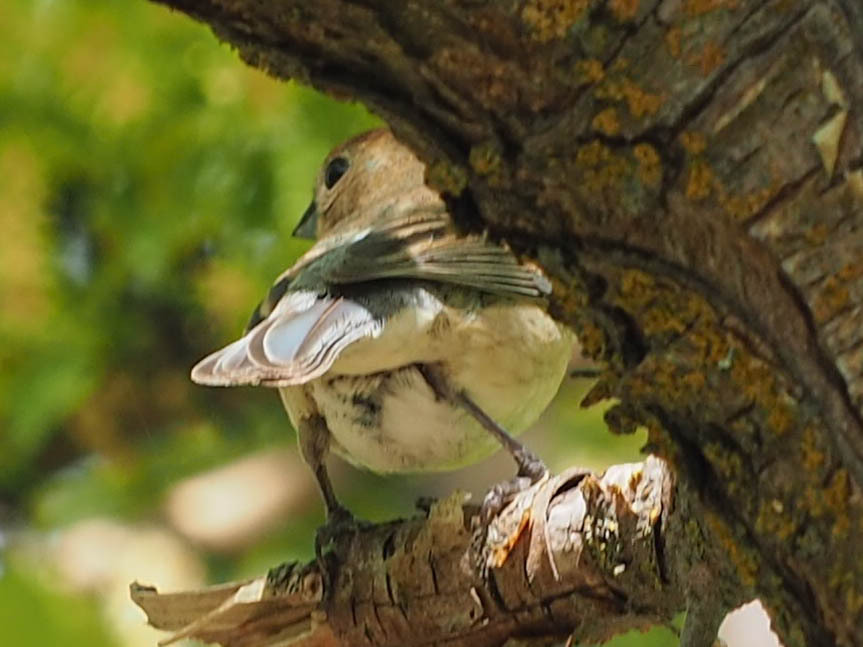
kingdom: Animalia
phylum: Chordata
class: Aves
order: Passeriformes
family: Cardinalidae
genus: Passerina
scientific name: Passerina amoena
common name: Lazuli bunting
